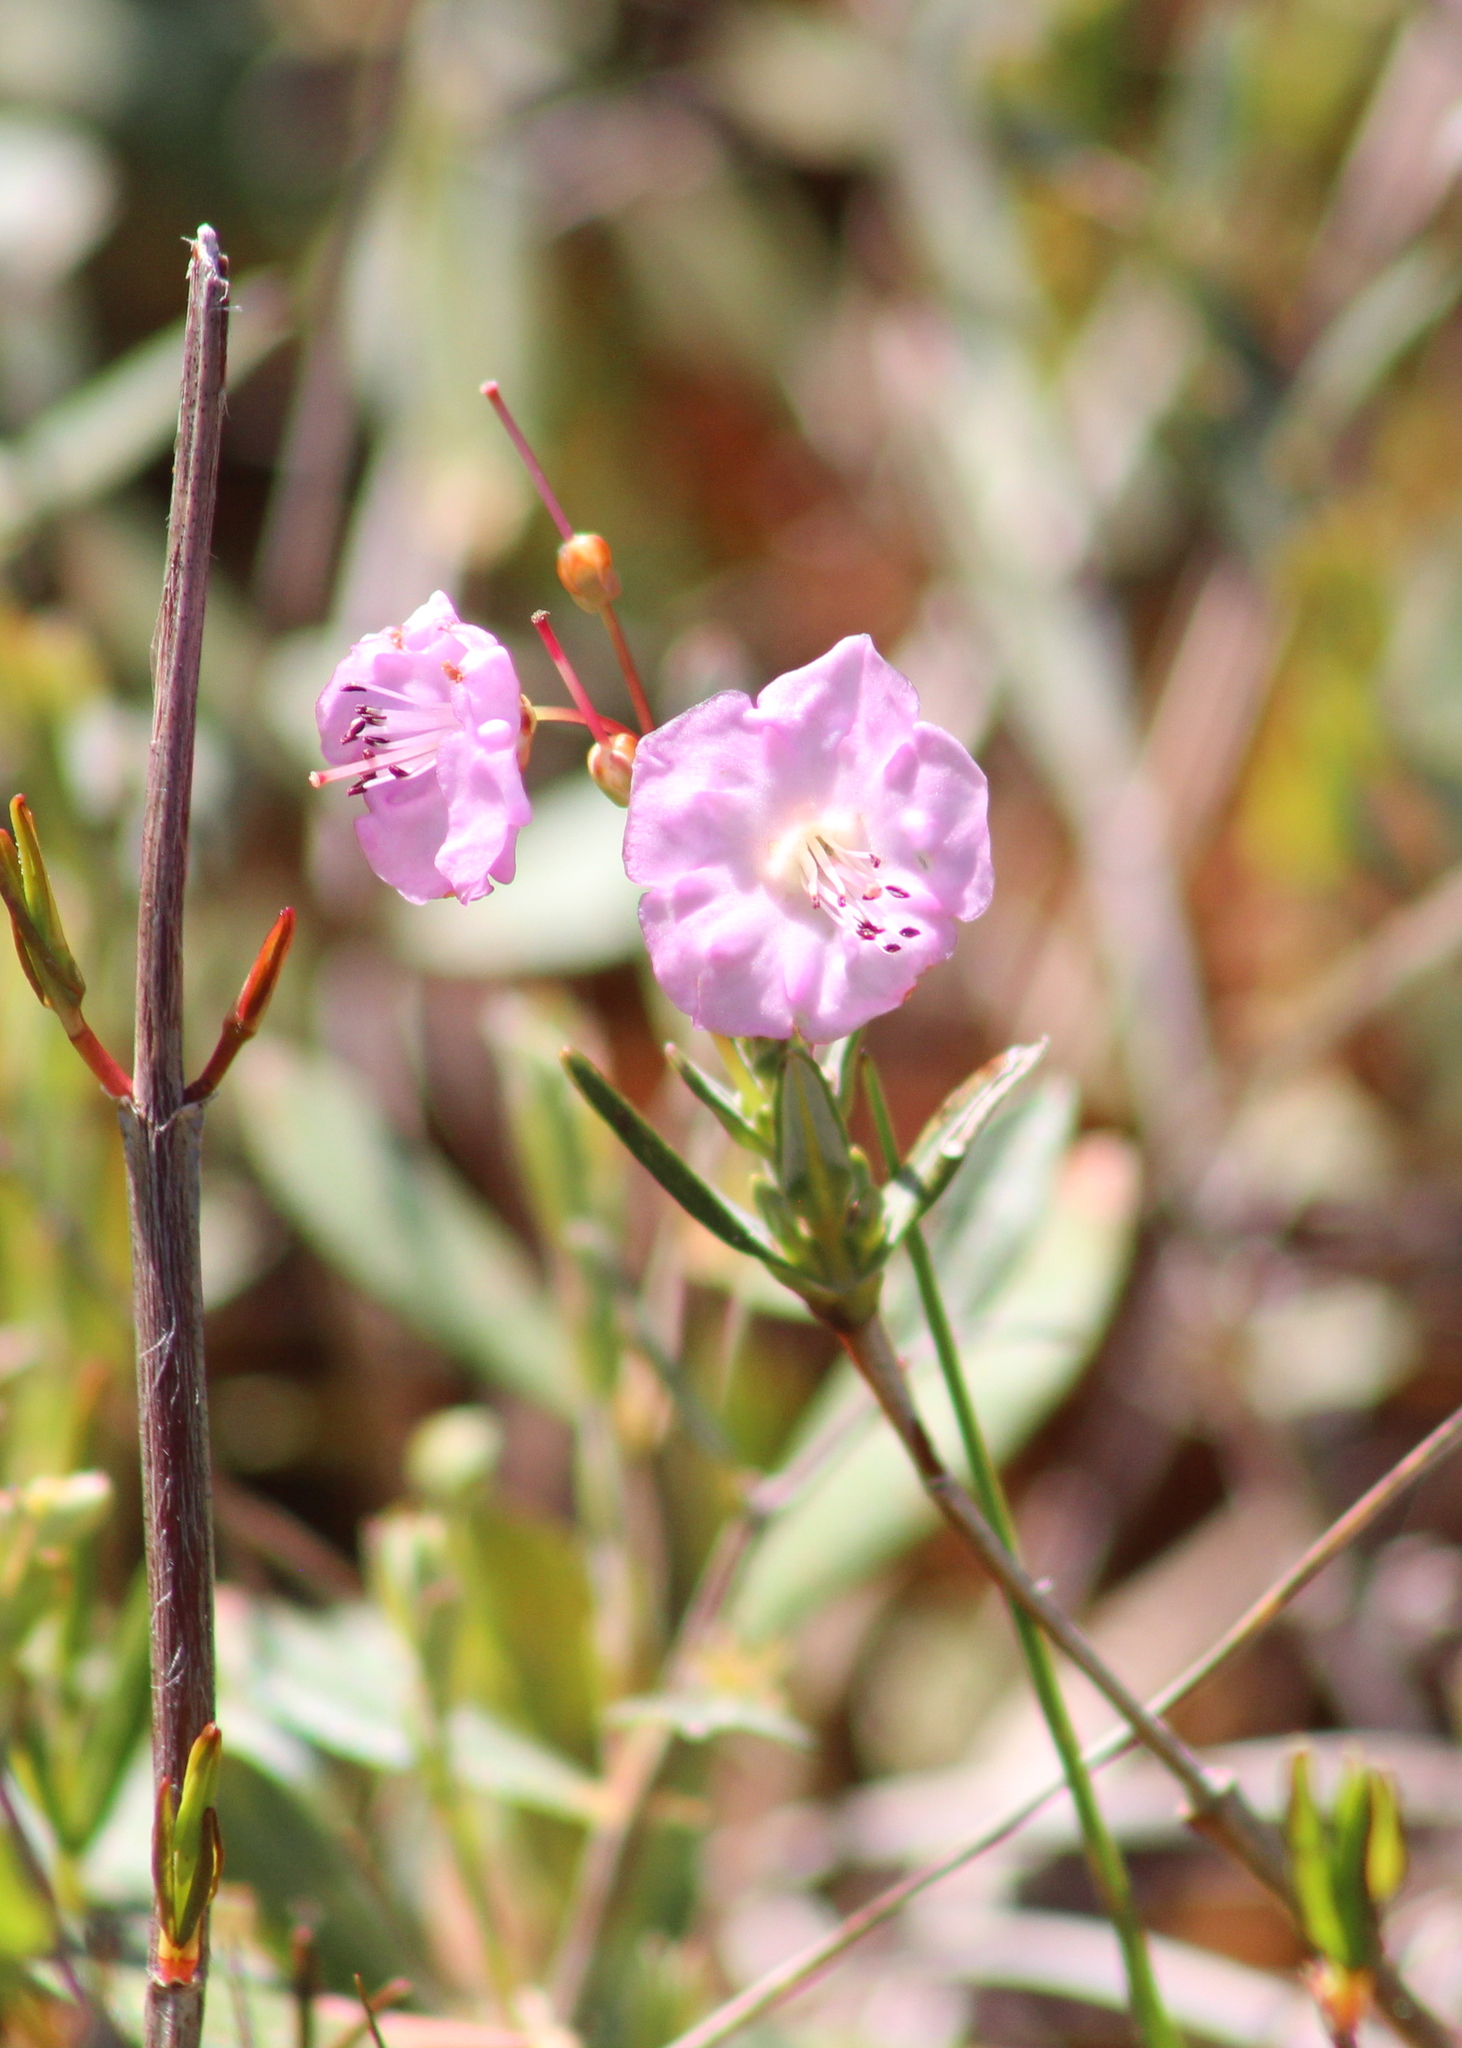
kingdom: Plantae
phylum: Tracheophyta
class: Magnoliopsida
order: Ericales
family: Ericaceae
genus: Kalmia
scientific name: Kalmia polifolia
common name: Bog-laurel
